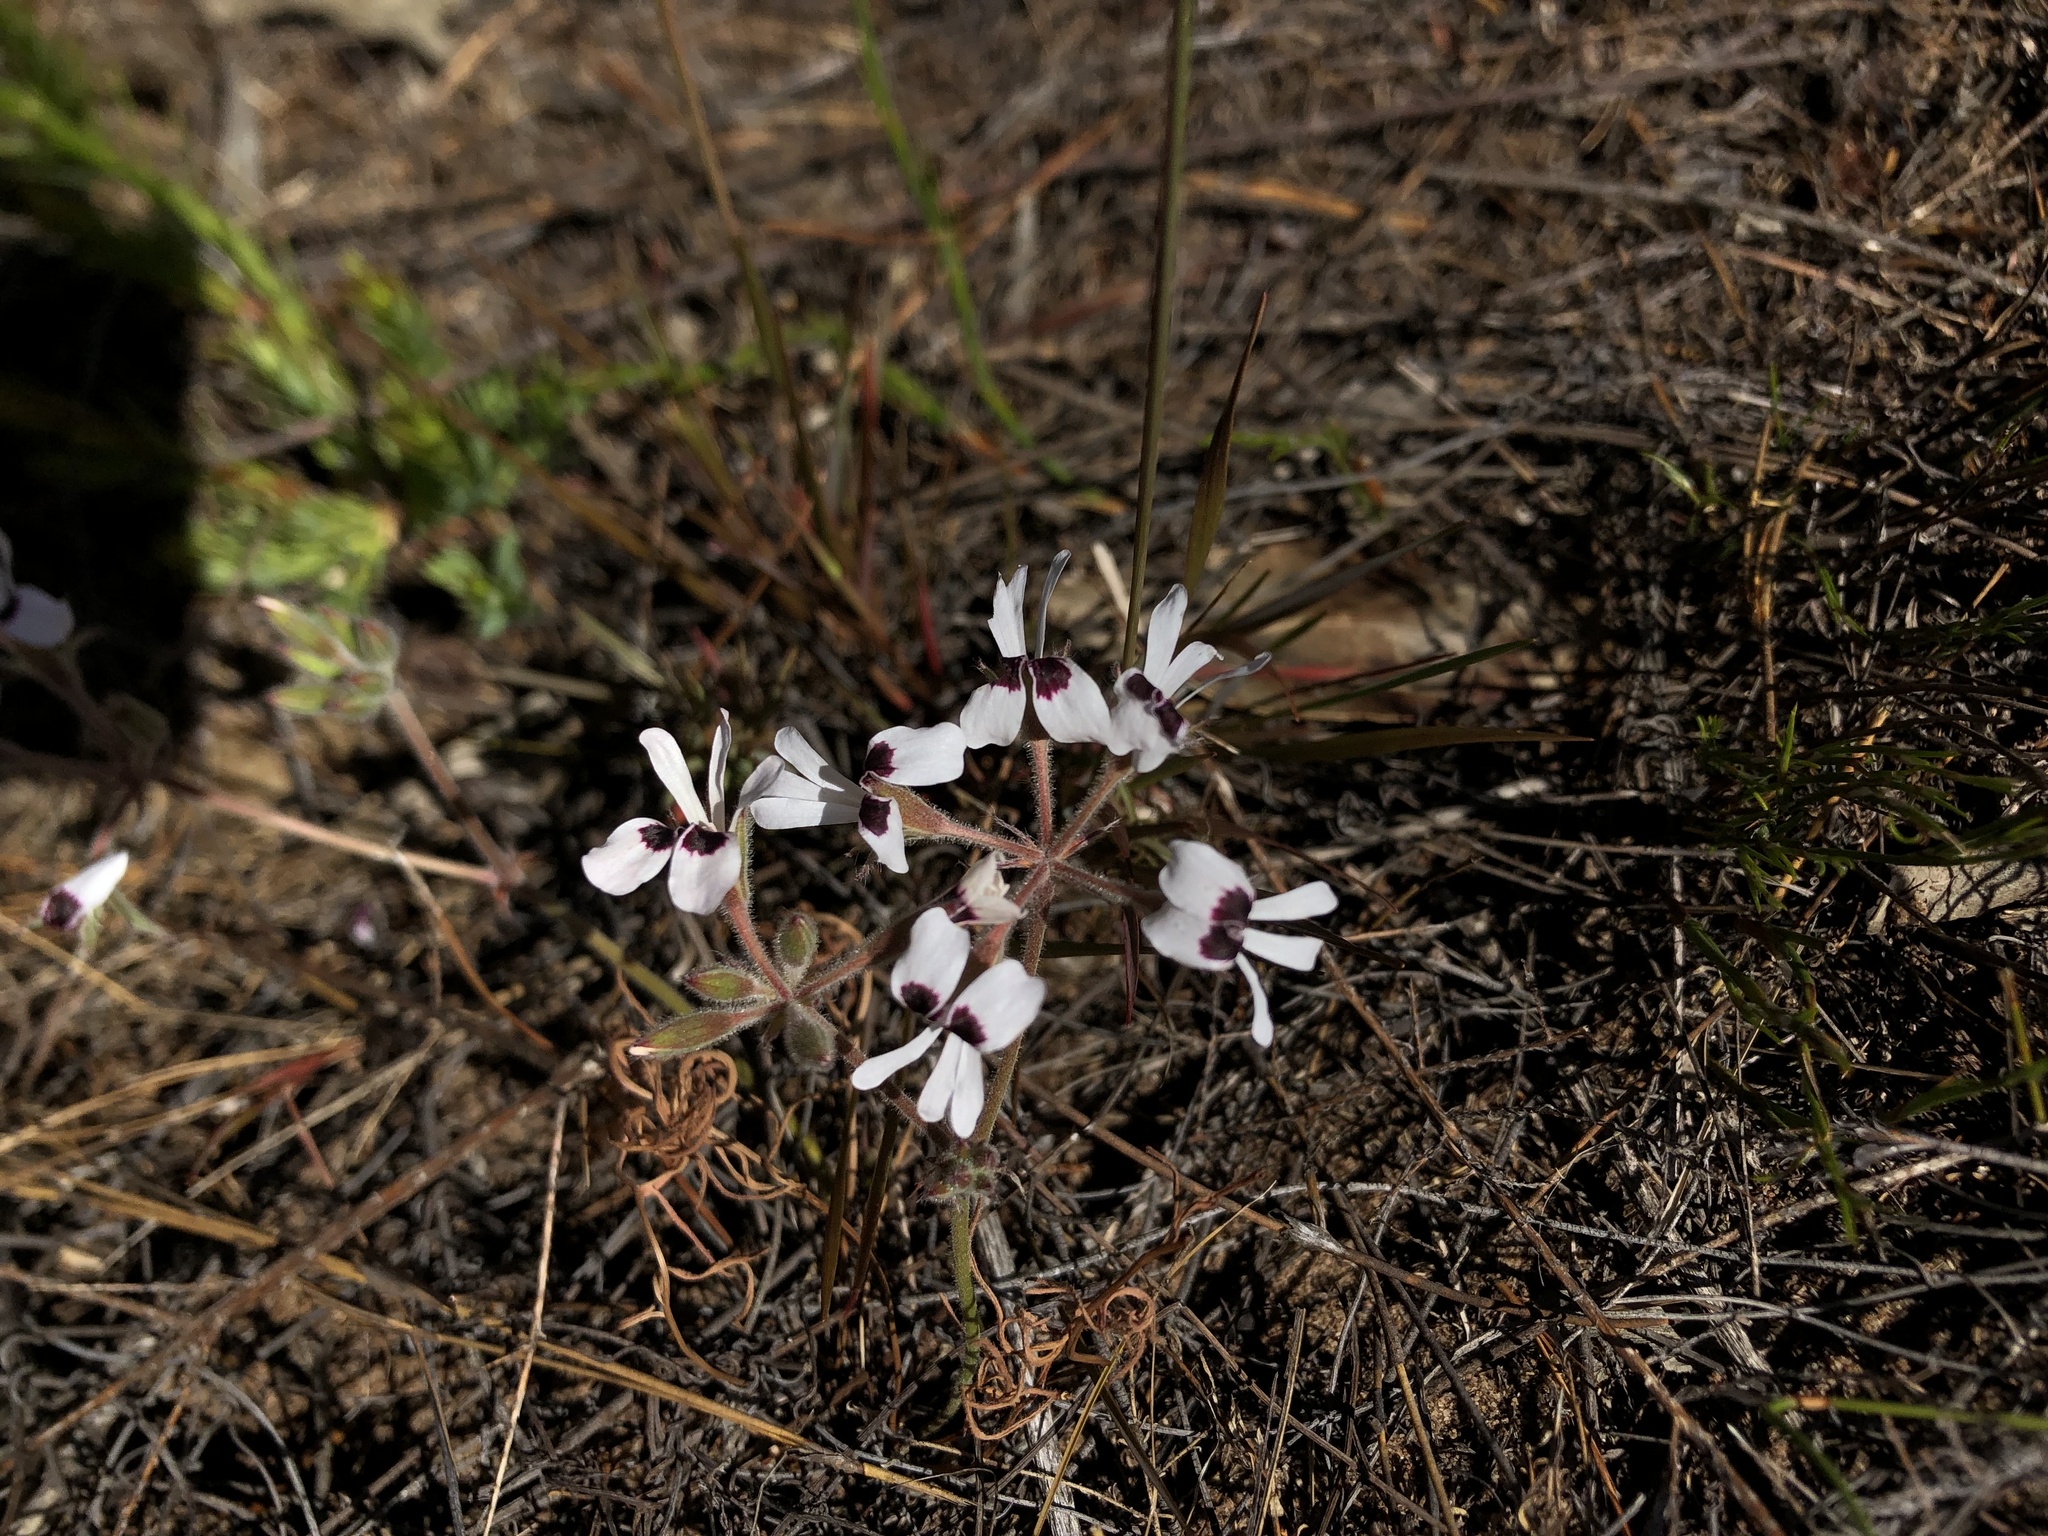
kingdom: Plantae
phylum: Tracheophyta
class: Magnoliopsida
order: Geraniales
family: Geraniaceae
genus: Pelargonium
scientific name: Pelargonium psammophilum
